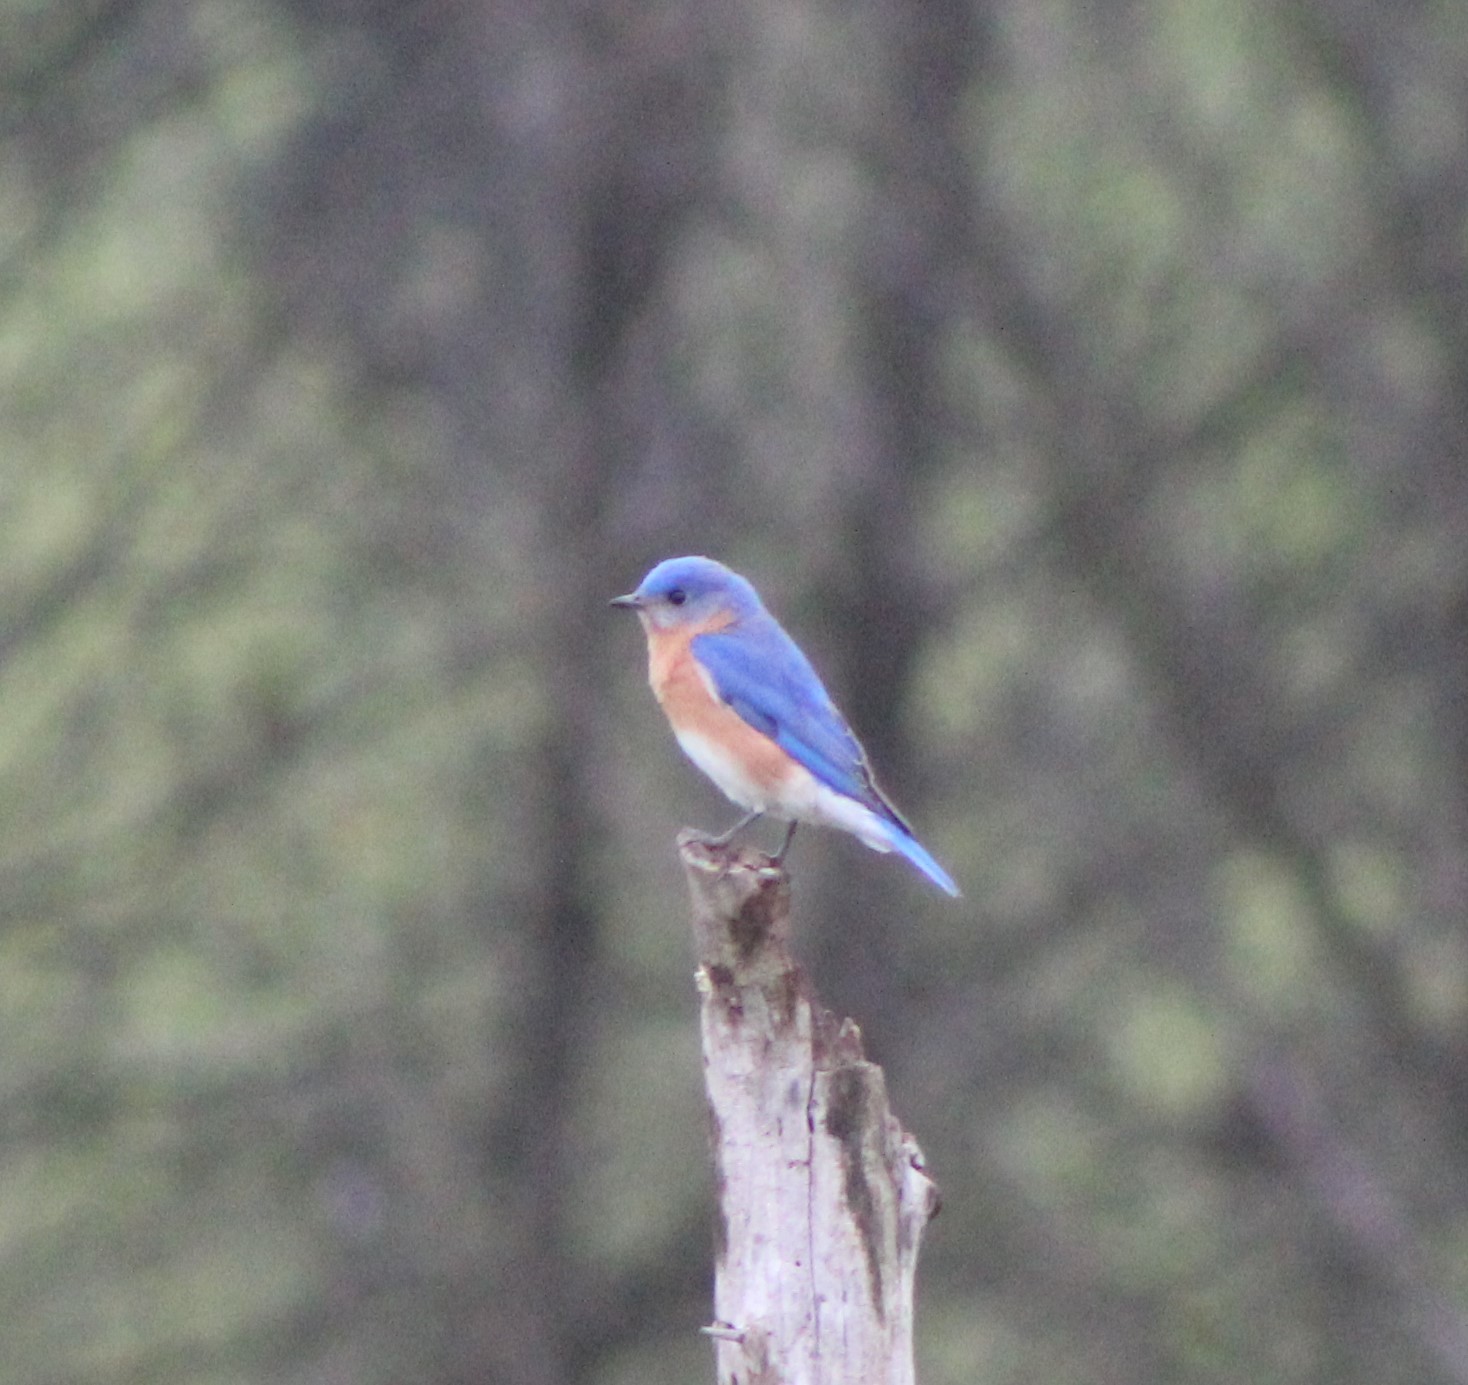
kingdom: Animalia
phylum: Chordata
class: Aves
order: Passeriformes
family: Turdidae
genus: Sialia
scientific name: Sialia sialis
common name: Eastern bluebird
